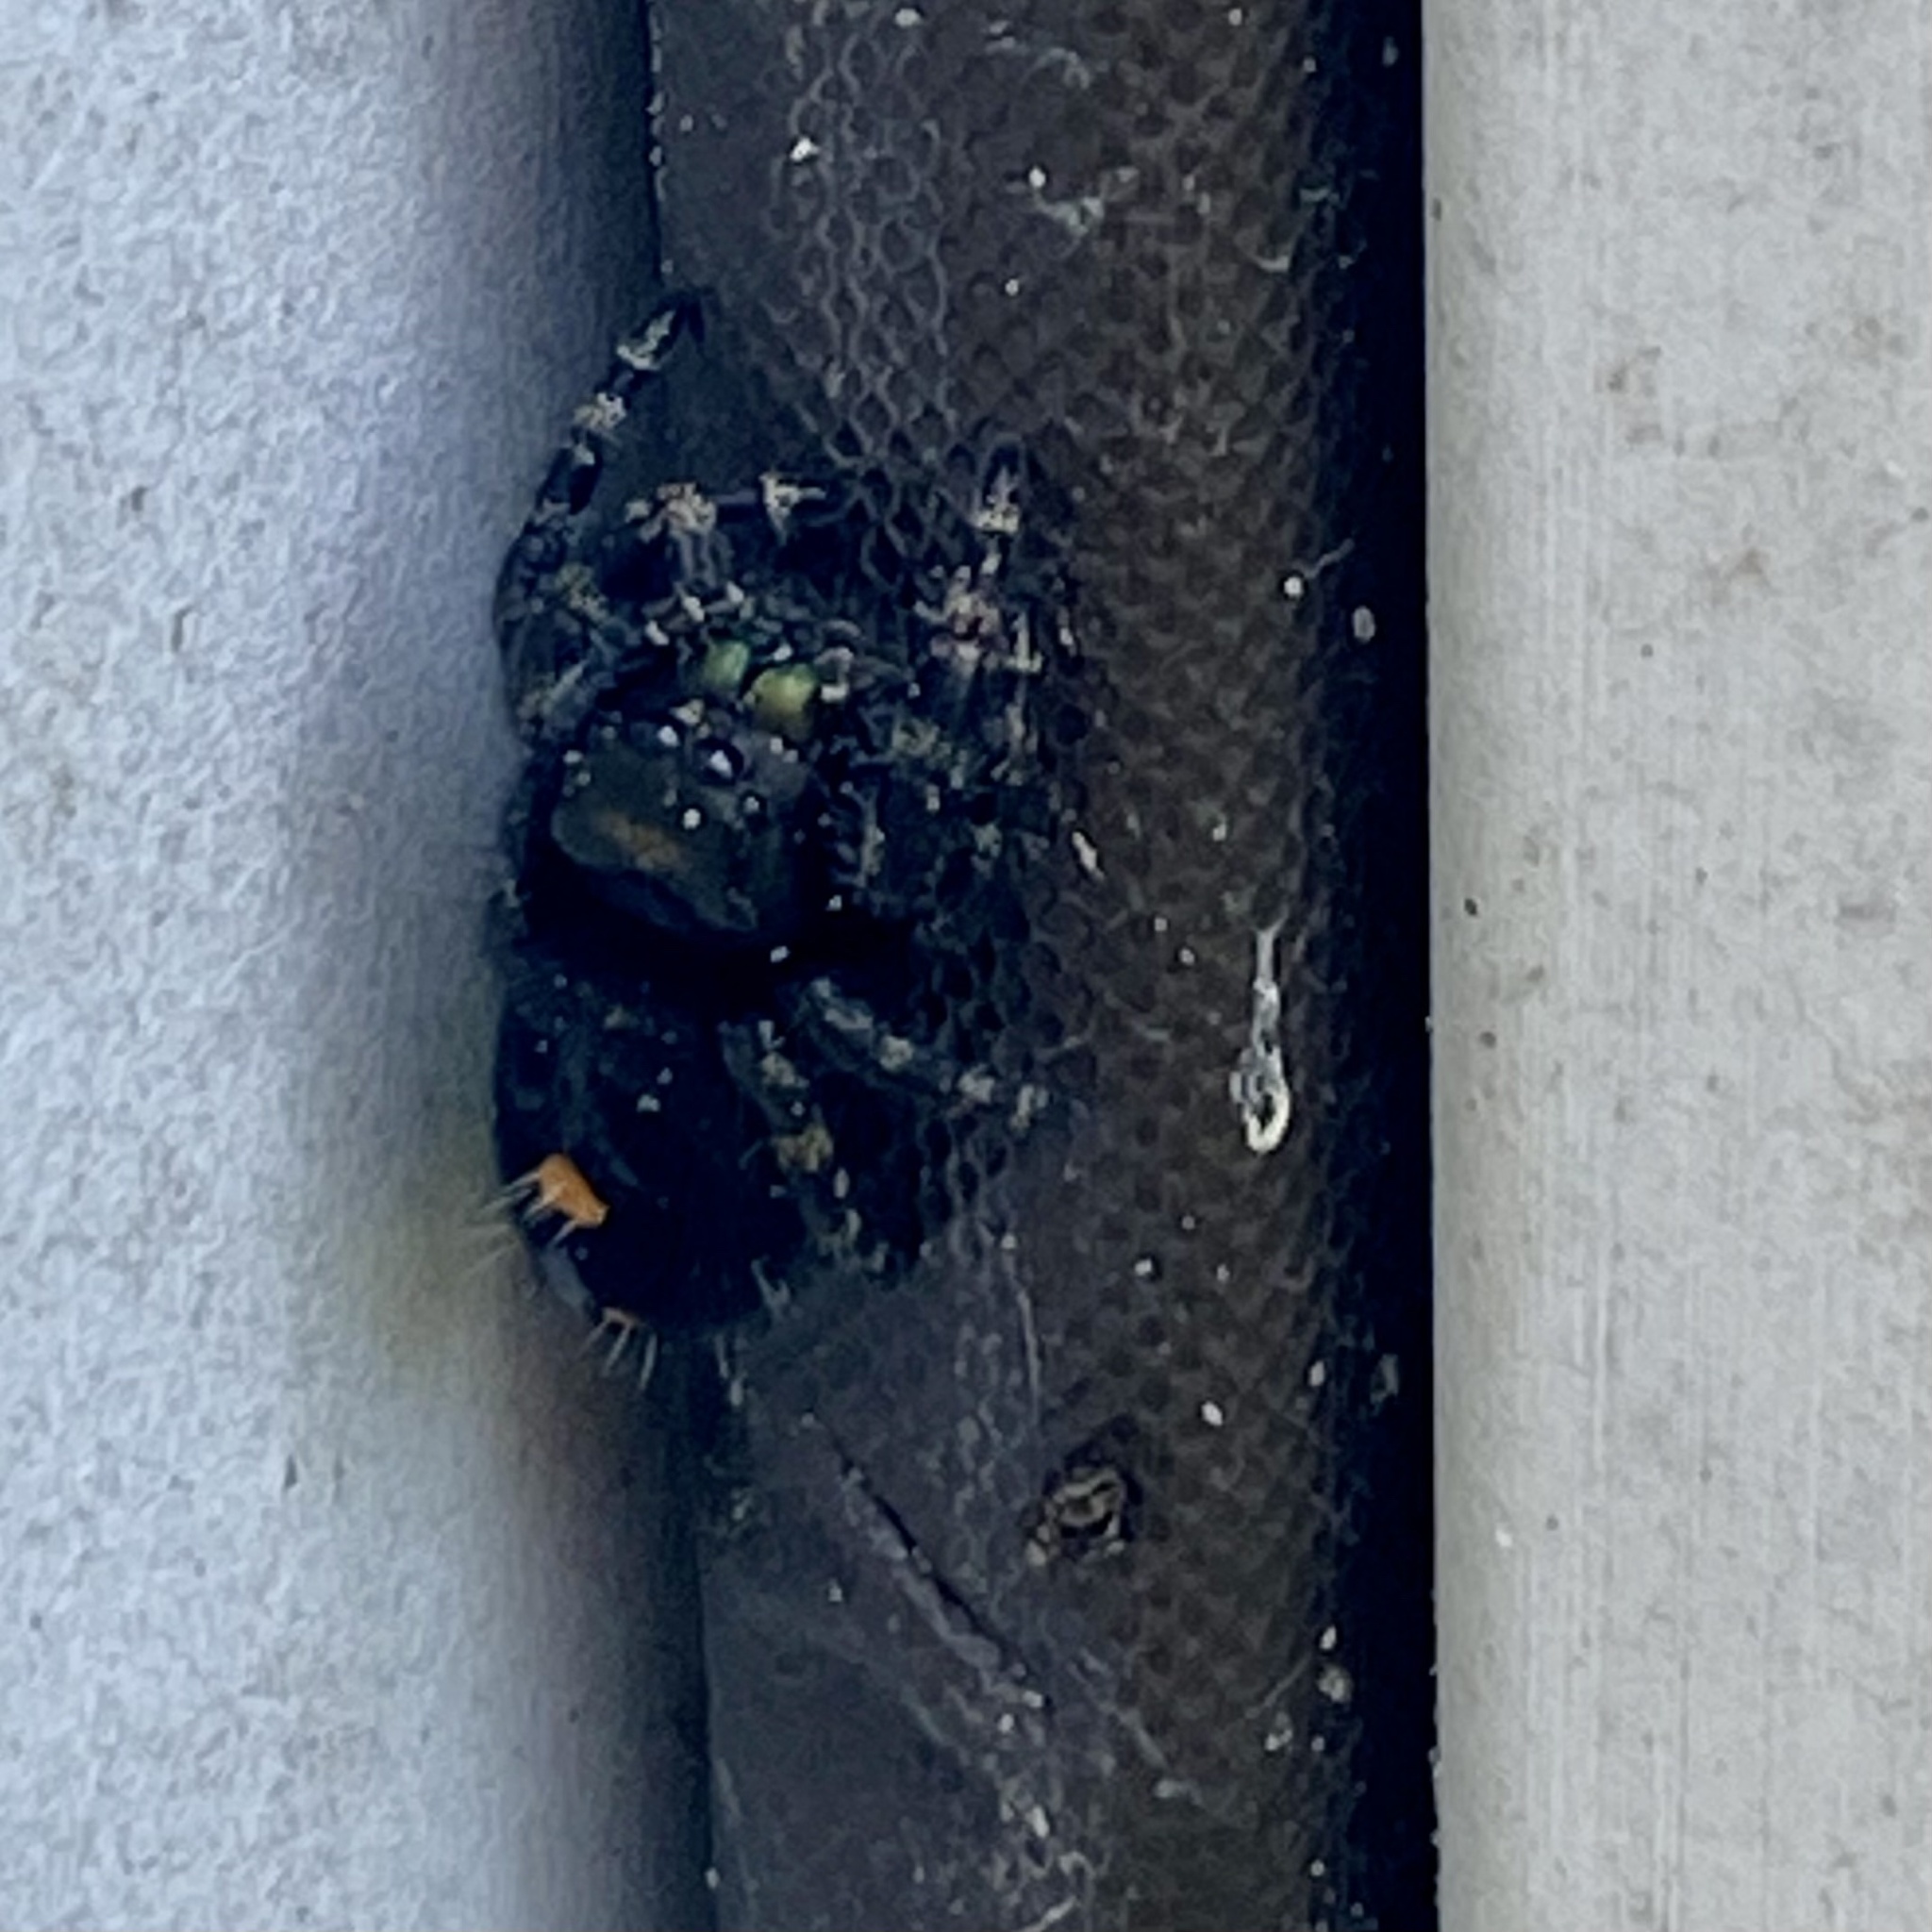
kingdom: Animalia
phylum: Arthropoda
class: Arachnida
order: Araneae
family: Salticidae
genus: Phidippus
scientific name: Phidippus audax
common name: Bold jumper
